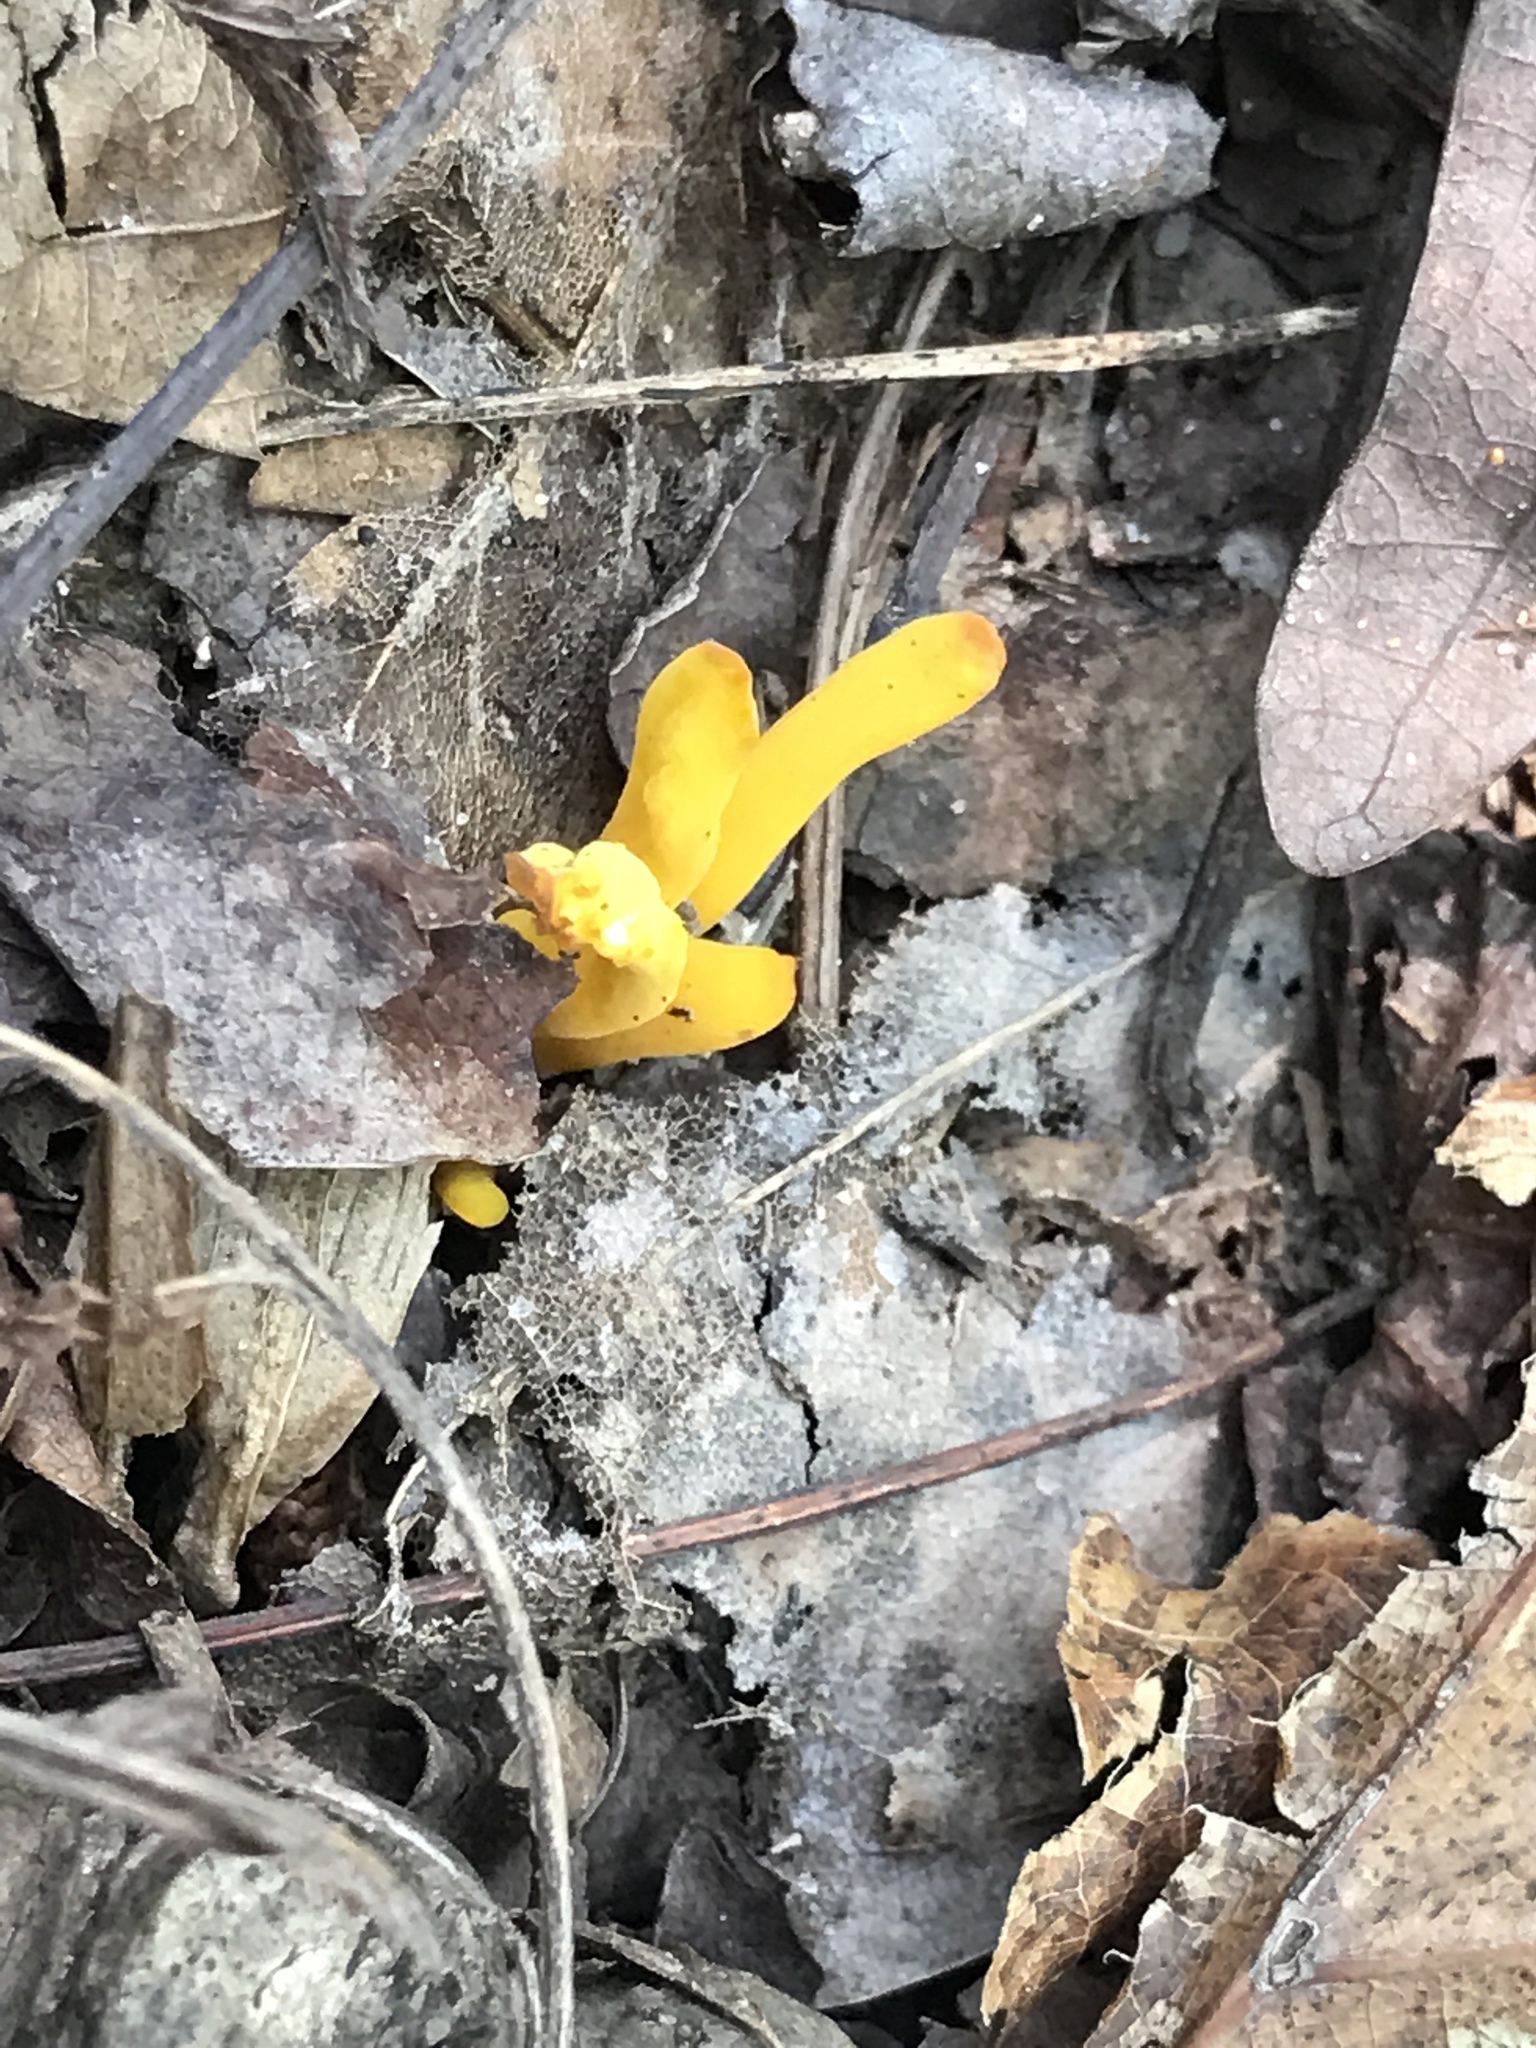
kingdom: Fungi
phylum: Basidiomycota
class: Agaricomycetes
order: Agaricales
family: Clavariaceae
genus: Clavulinopsis
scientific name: Clavulinopsis fusiformis
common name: Golden spindles
